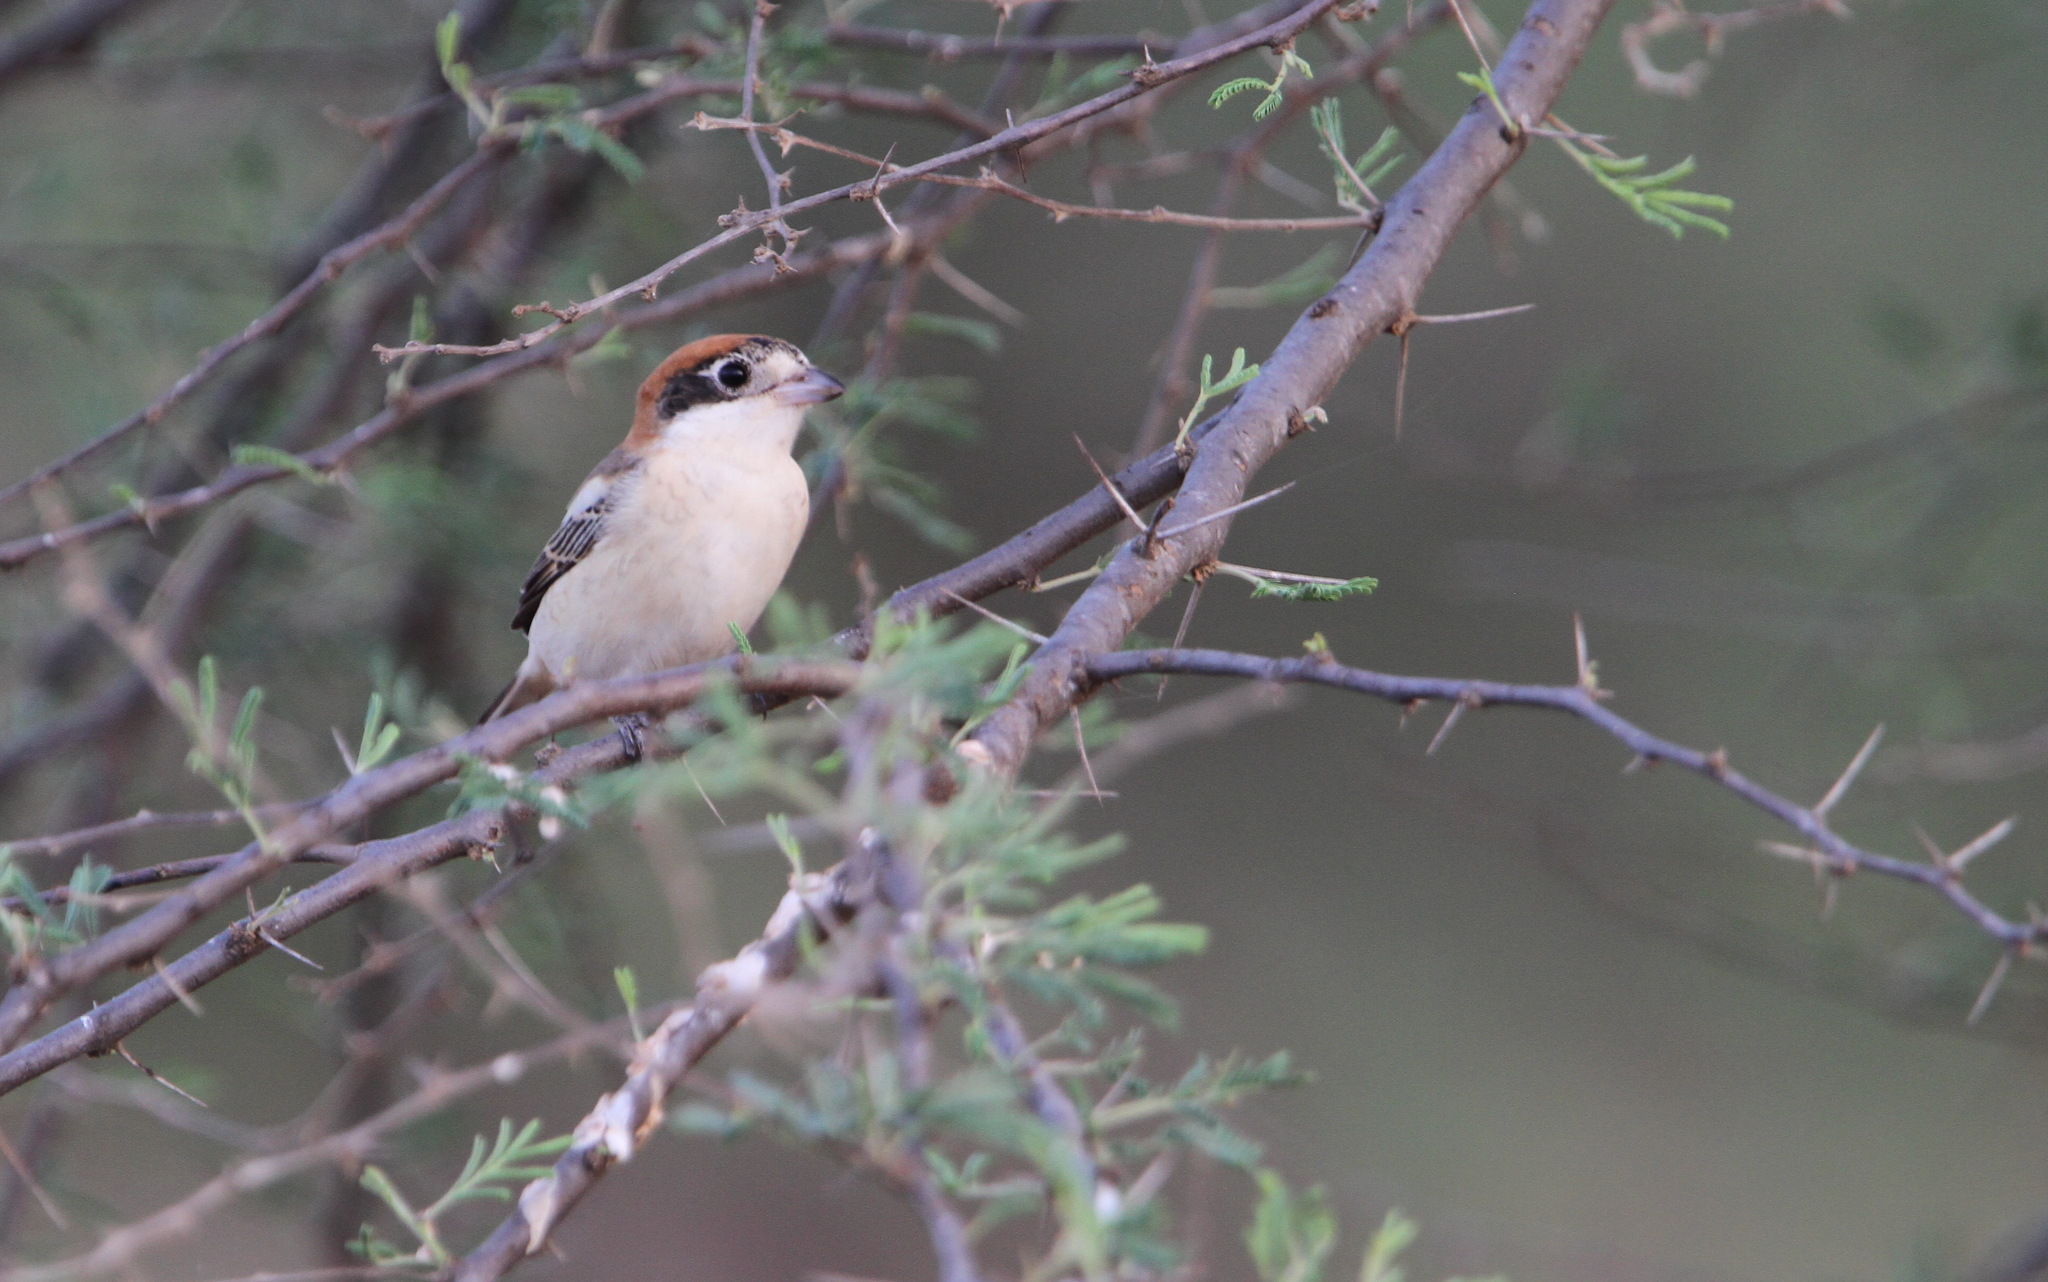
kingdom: Animalia
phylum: Chordata
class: Aves
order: Passeriformes
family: Laniidae
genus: Lanius
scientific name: Lanius senator
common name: Woodchat shrike
